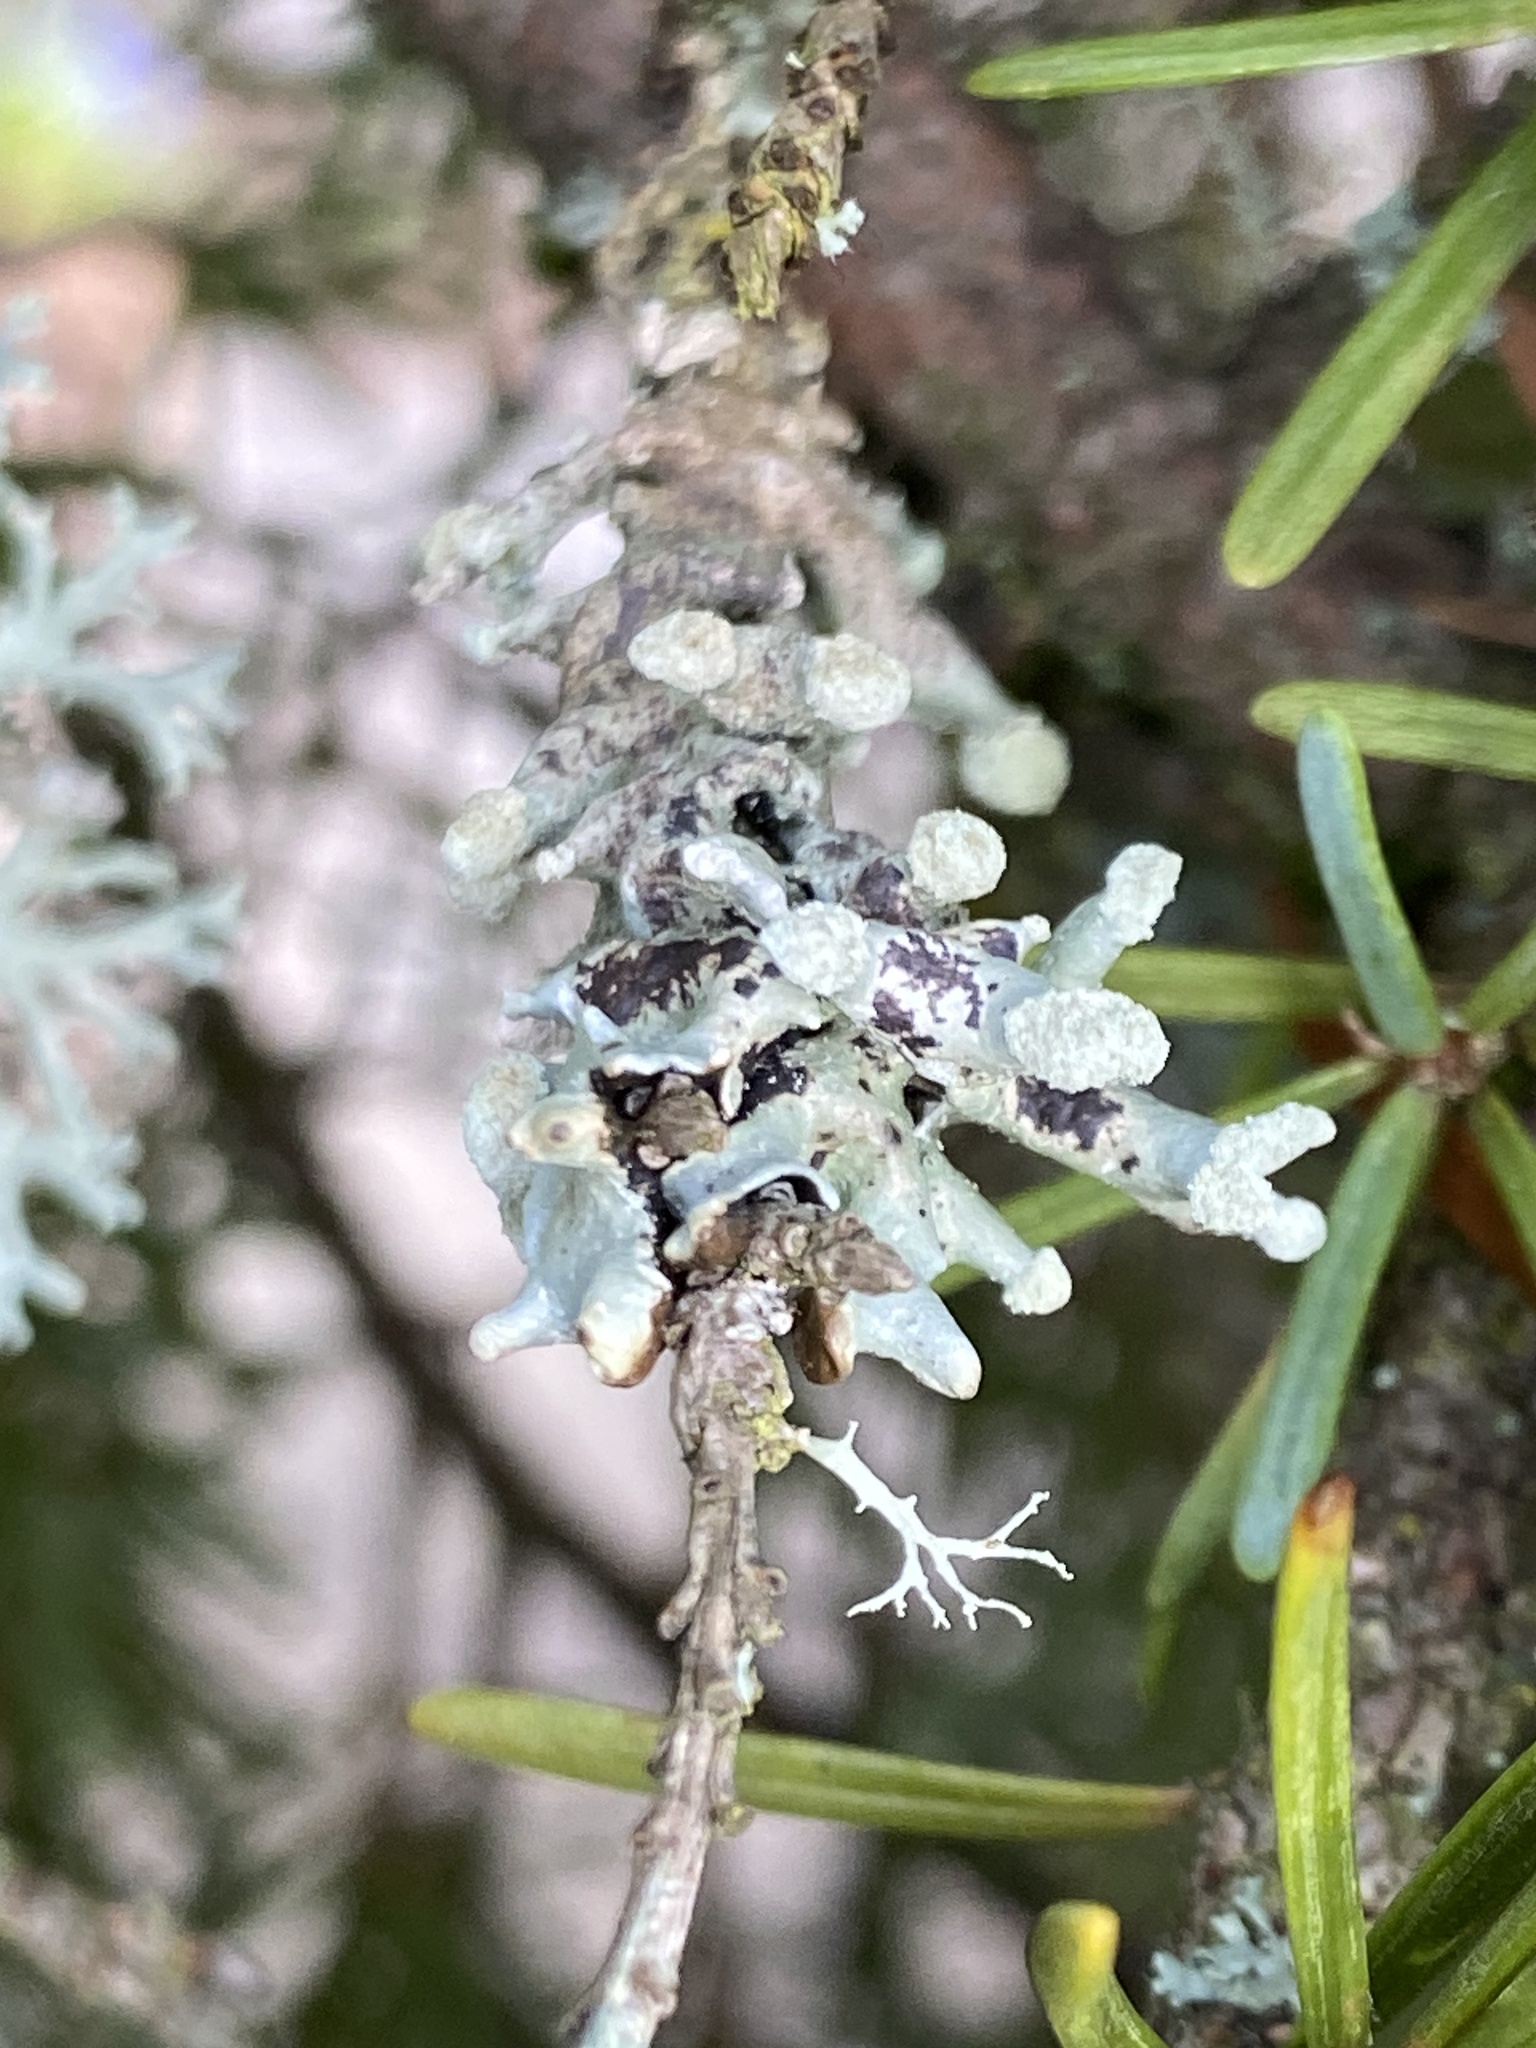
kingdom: Fungi
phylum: Ascomycota
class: Lecanoromycetes
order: Lecanorales
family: Parmeliaceae
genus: Hypogymnia
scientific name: Hypogymnia tubulosa
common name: Powder-headed tube lichen
